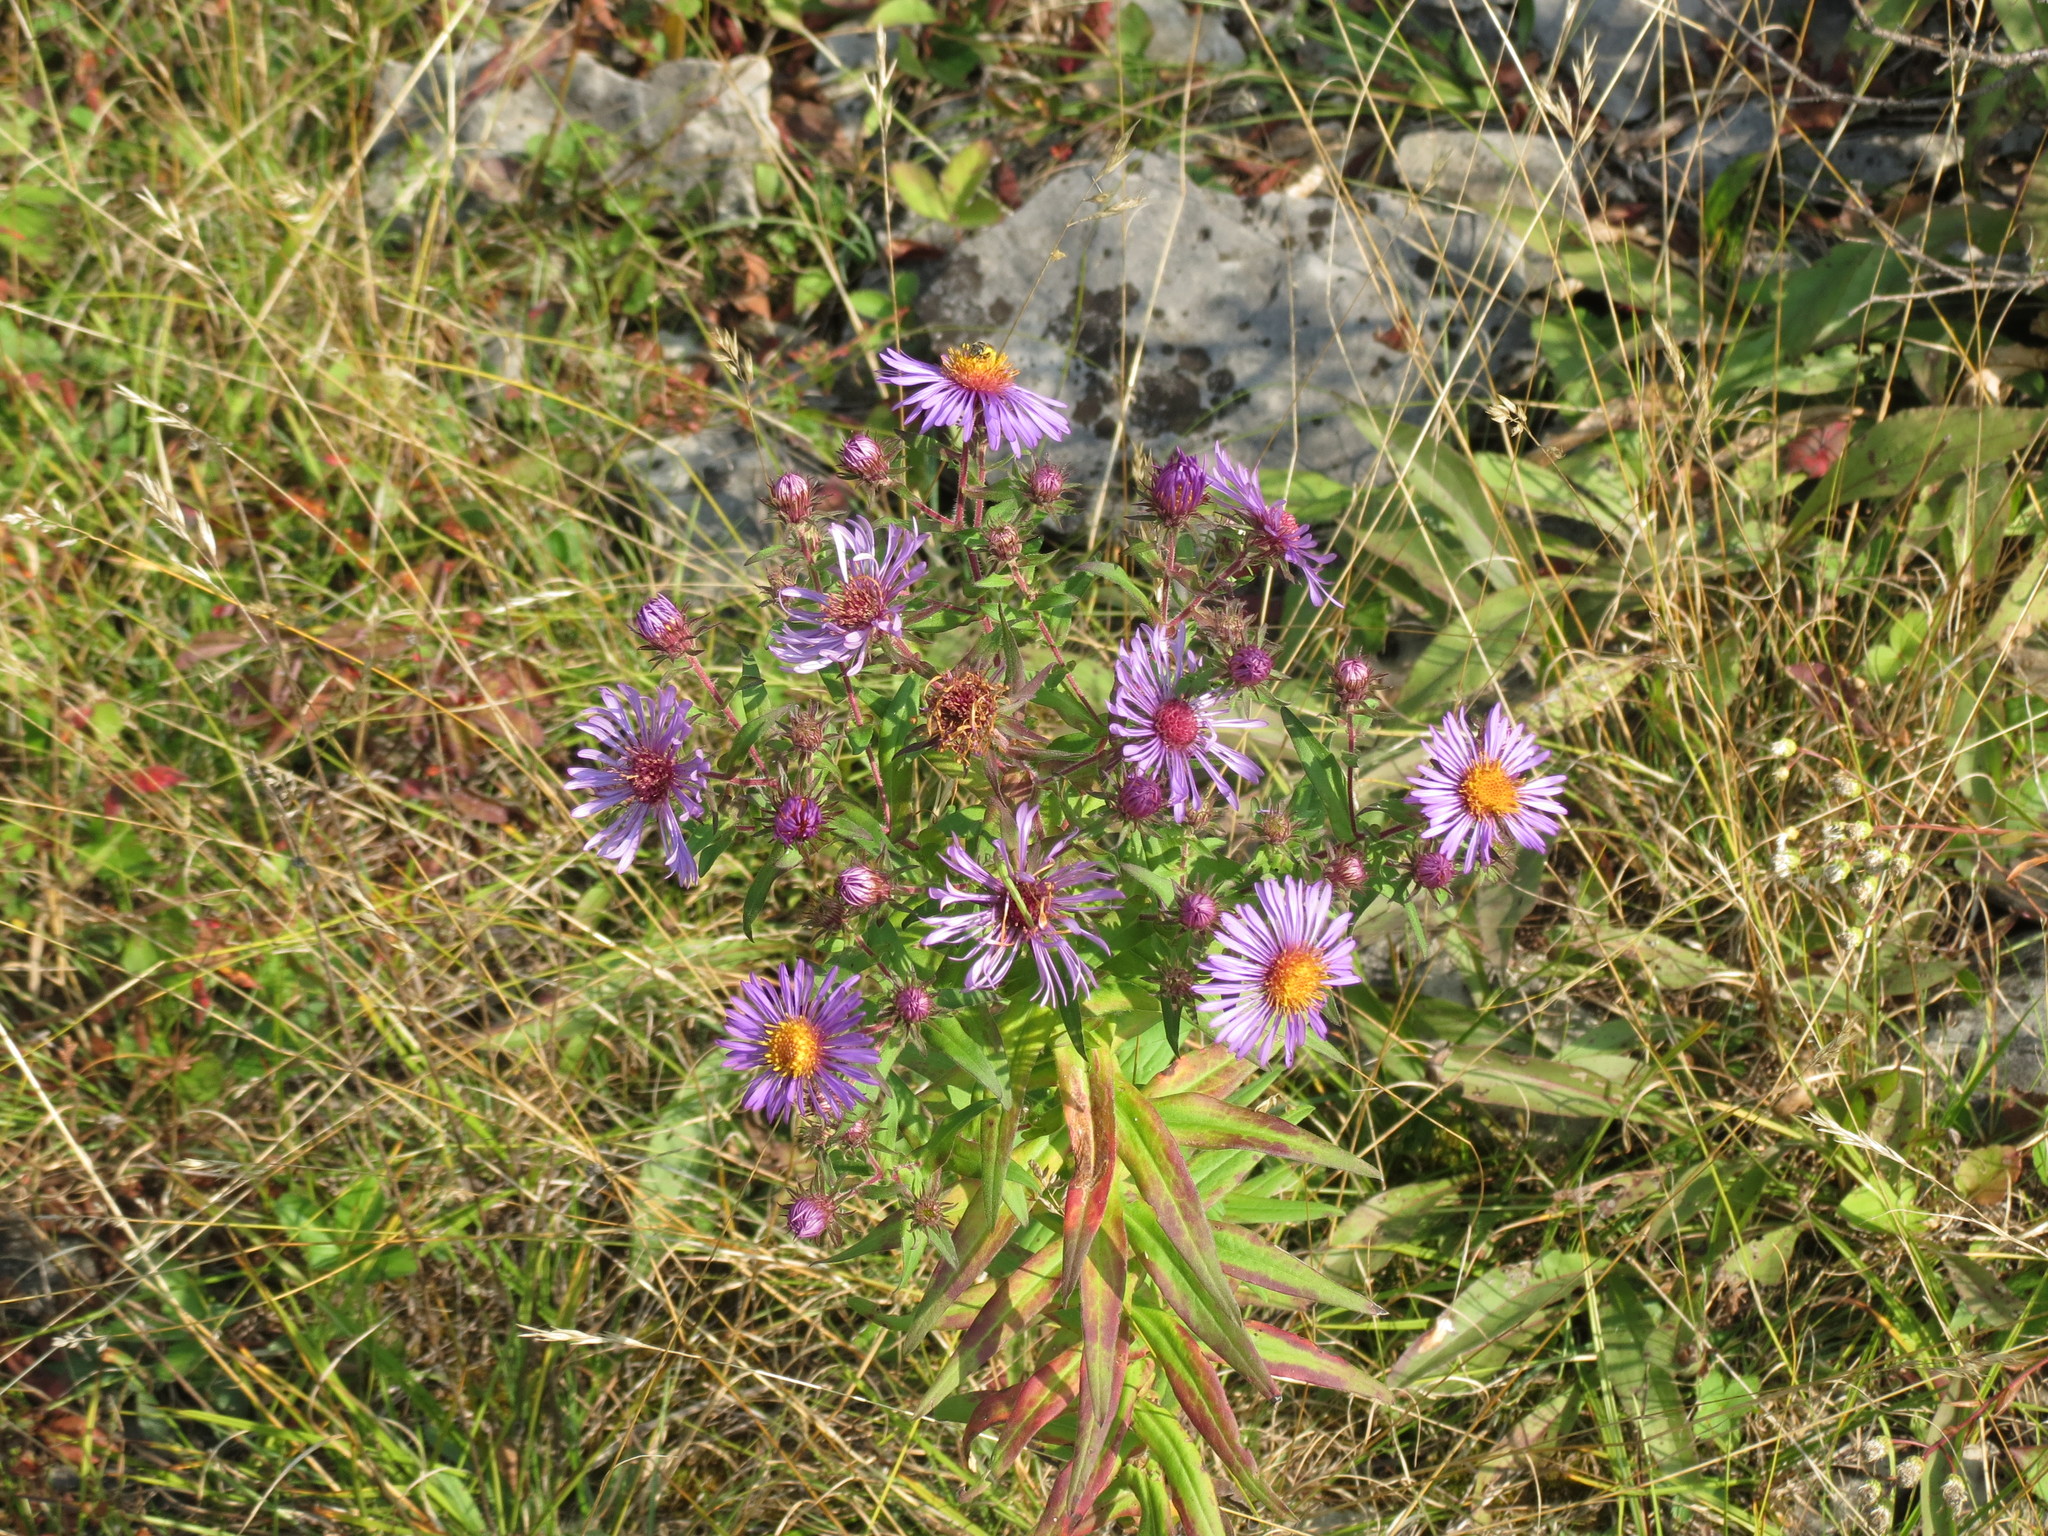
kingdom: Plantae
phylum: Tracheophyta
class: Magnoliopsida
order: Asterales
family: Asteraceae
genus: Symphyotrichum
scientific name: Symphyotrichum novae-angliae
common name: Michaelmas daisy
